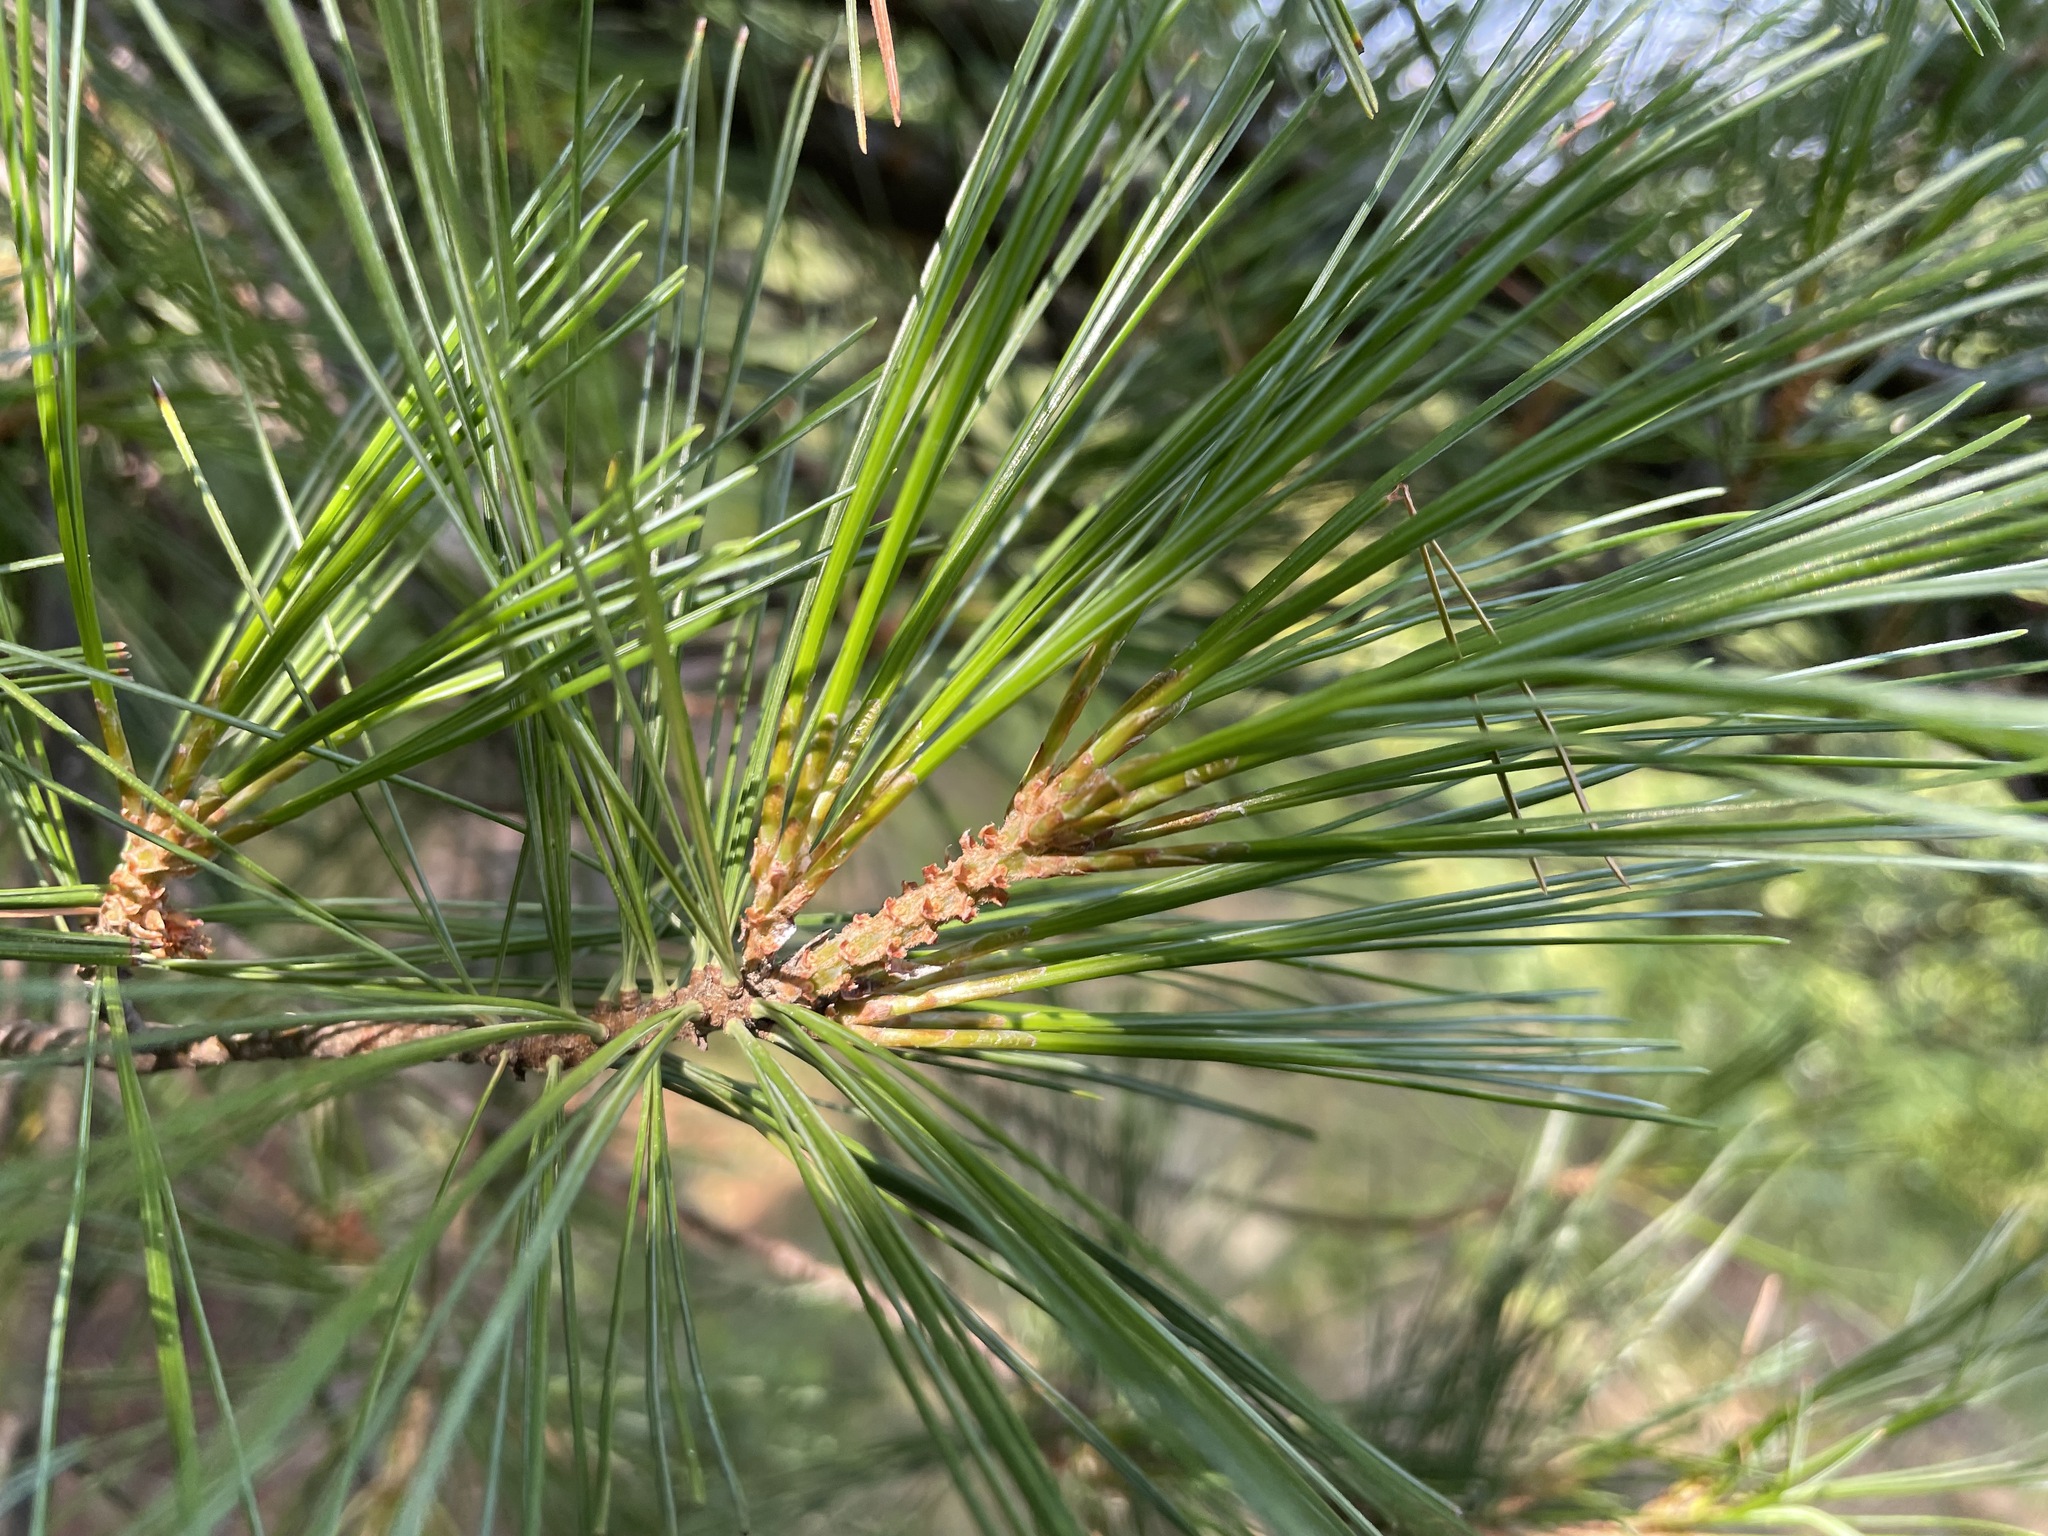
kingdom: Plantae
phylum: Tracheophyta
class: Pinopsida
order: Pinales
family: Pinaceae
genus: Pinus
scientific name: Pinus strobus
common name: Weymouth pine
